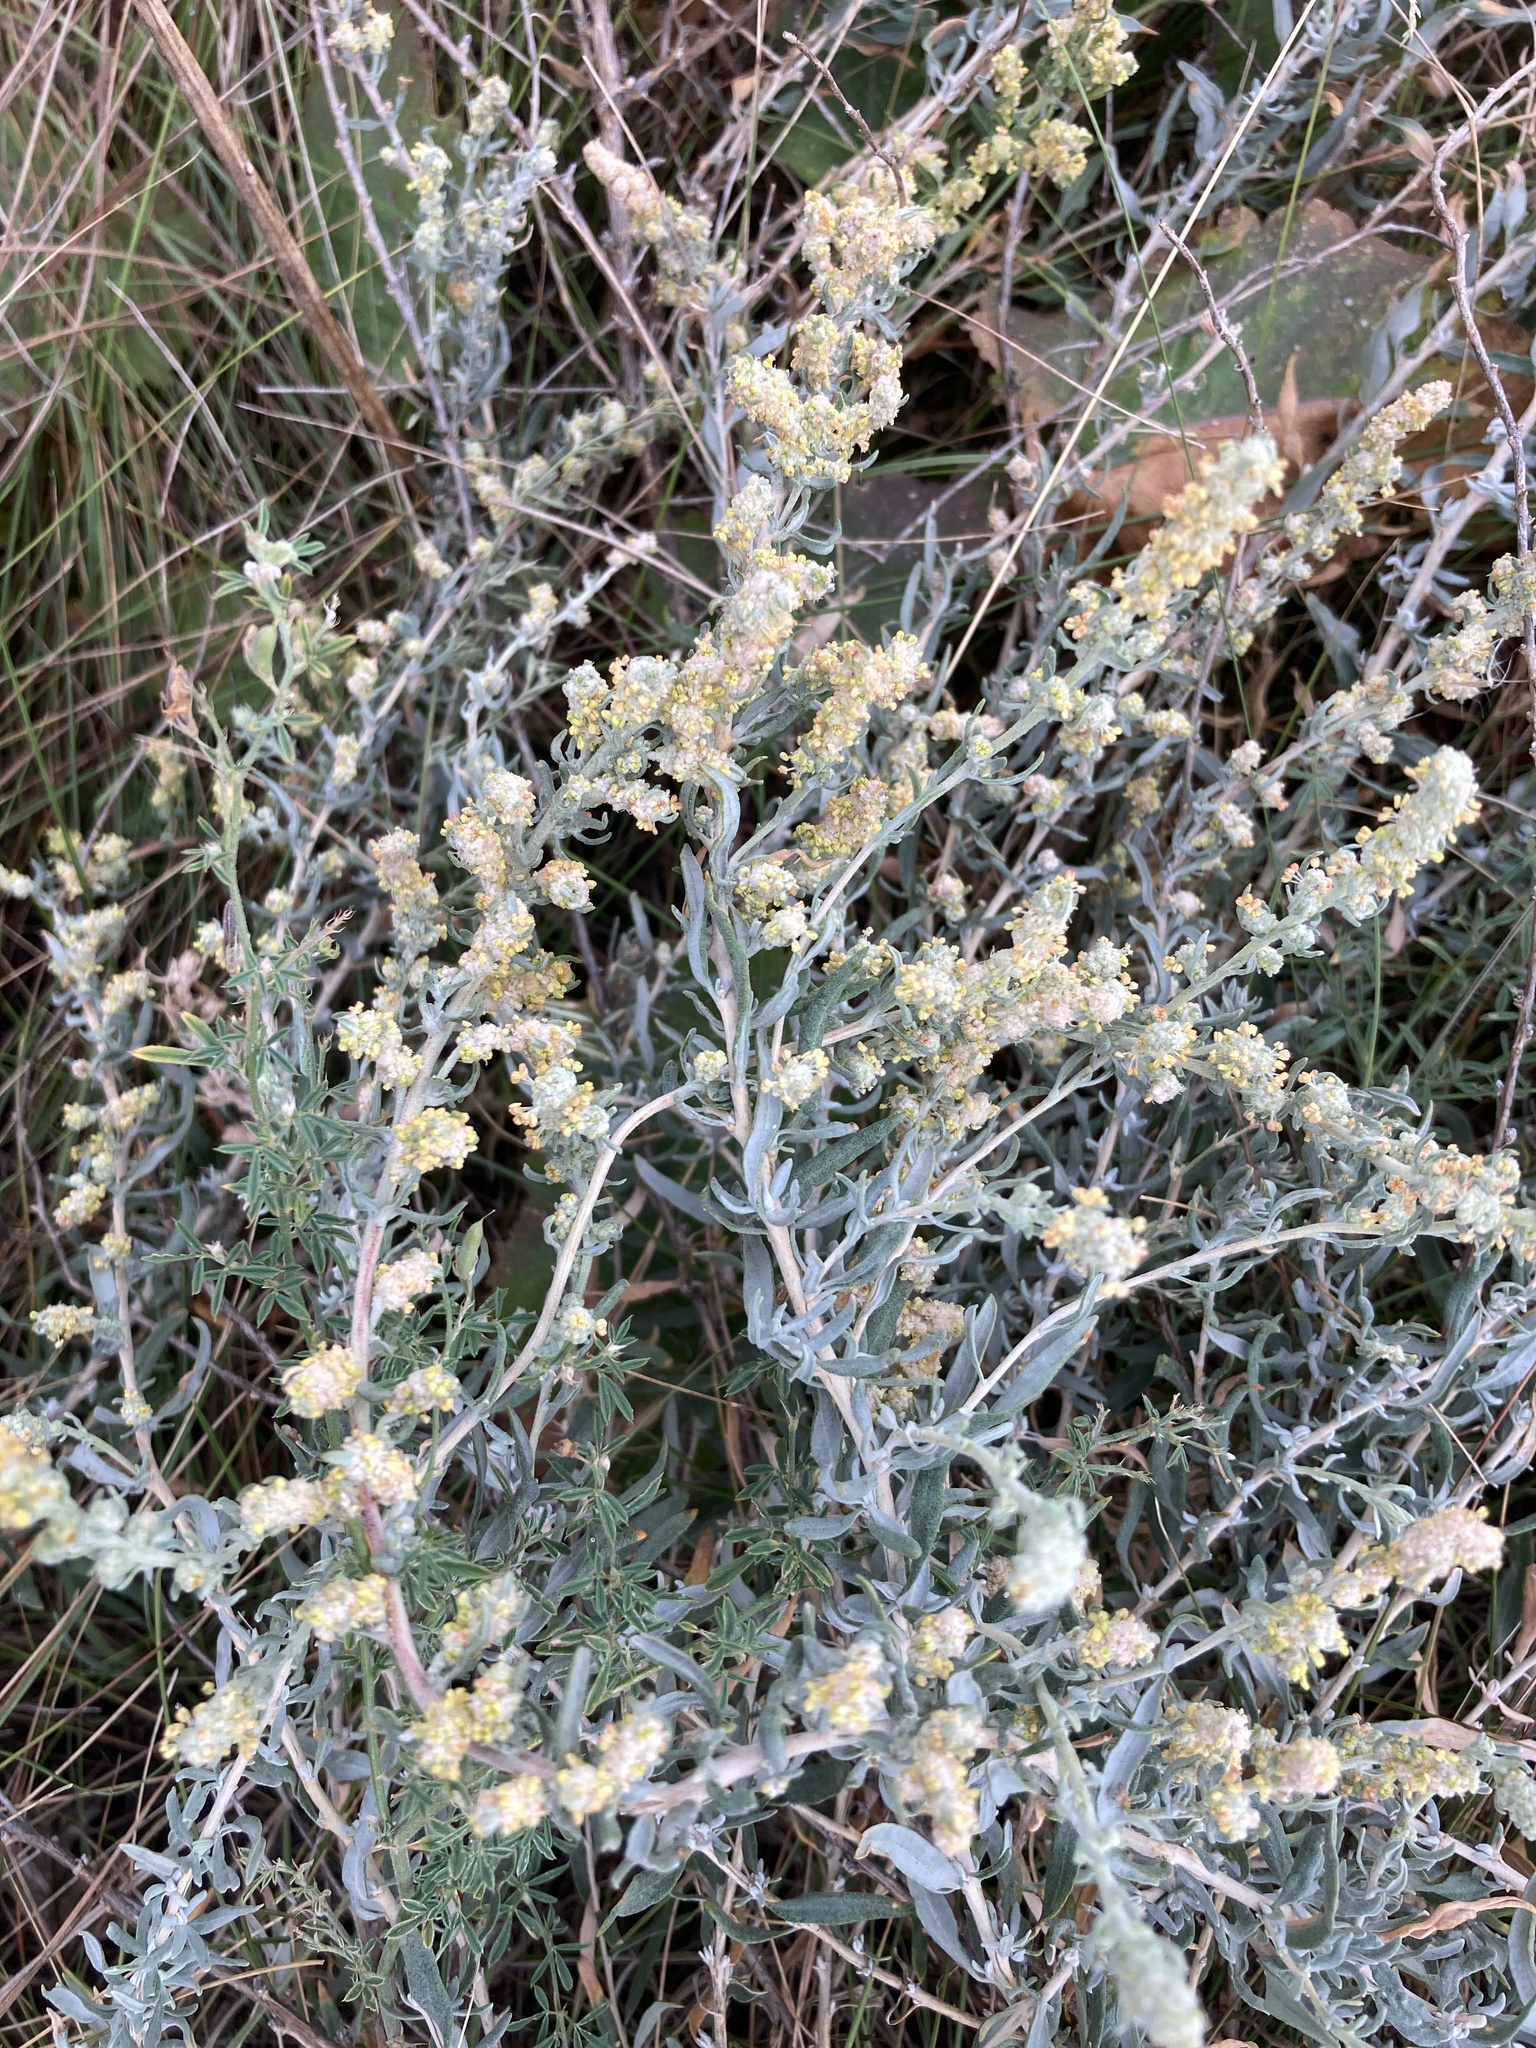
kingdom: Plantae
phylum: Tracheophyta
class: Magnoliopsida
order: Caryophyllales
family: Amaranthaceae
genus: Krascheninnikovia
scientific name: Krascheninnikovia ceratoides
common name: Pamirian winterfat
